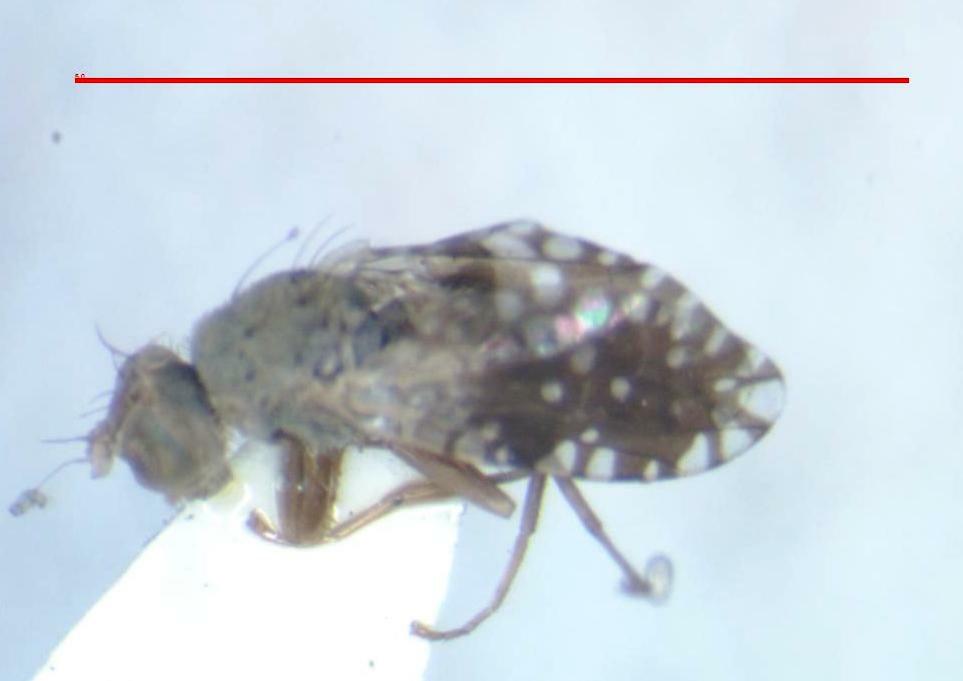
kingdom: Animalia
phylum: Arthropoda
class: Insecta
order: Diptera
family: Tephritidae
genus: Dyseuaresta
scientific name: Dyseuaresta mexicana
